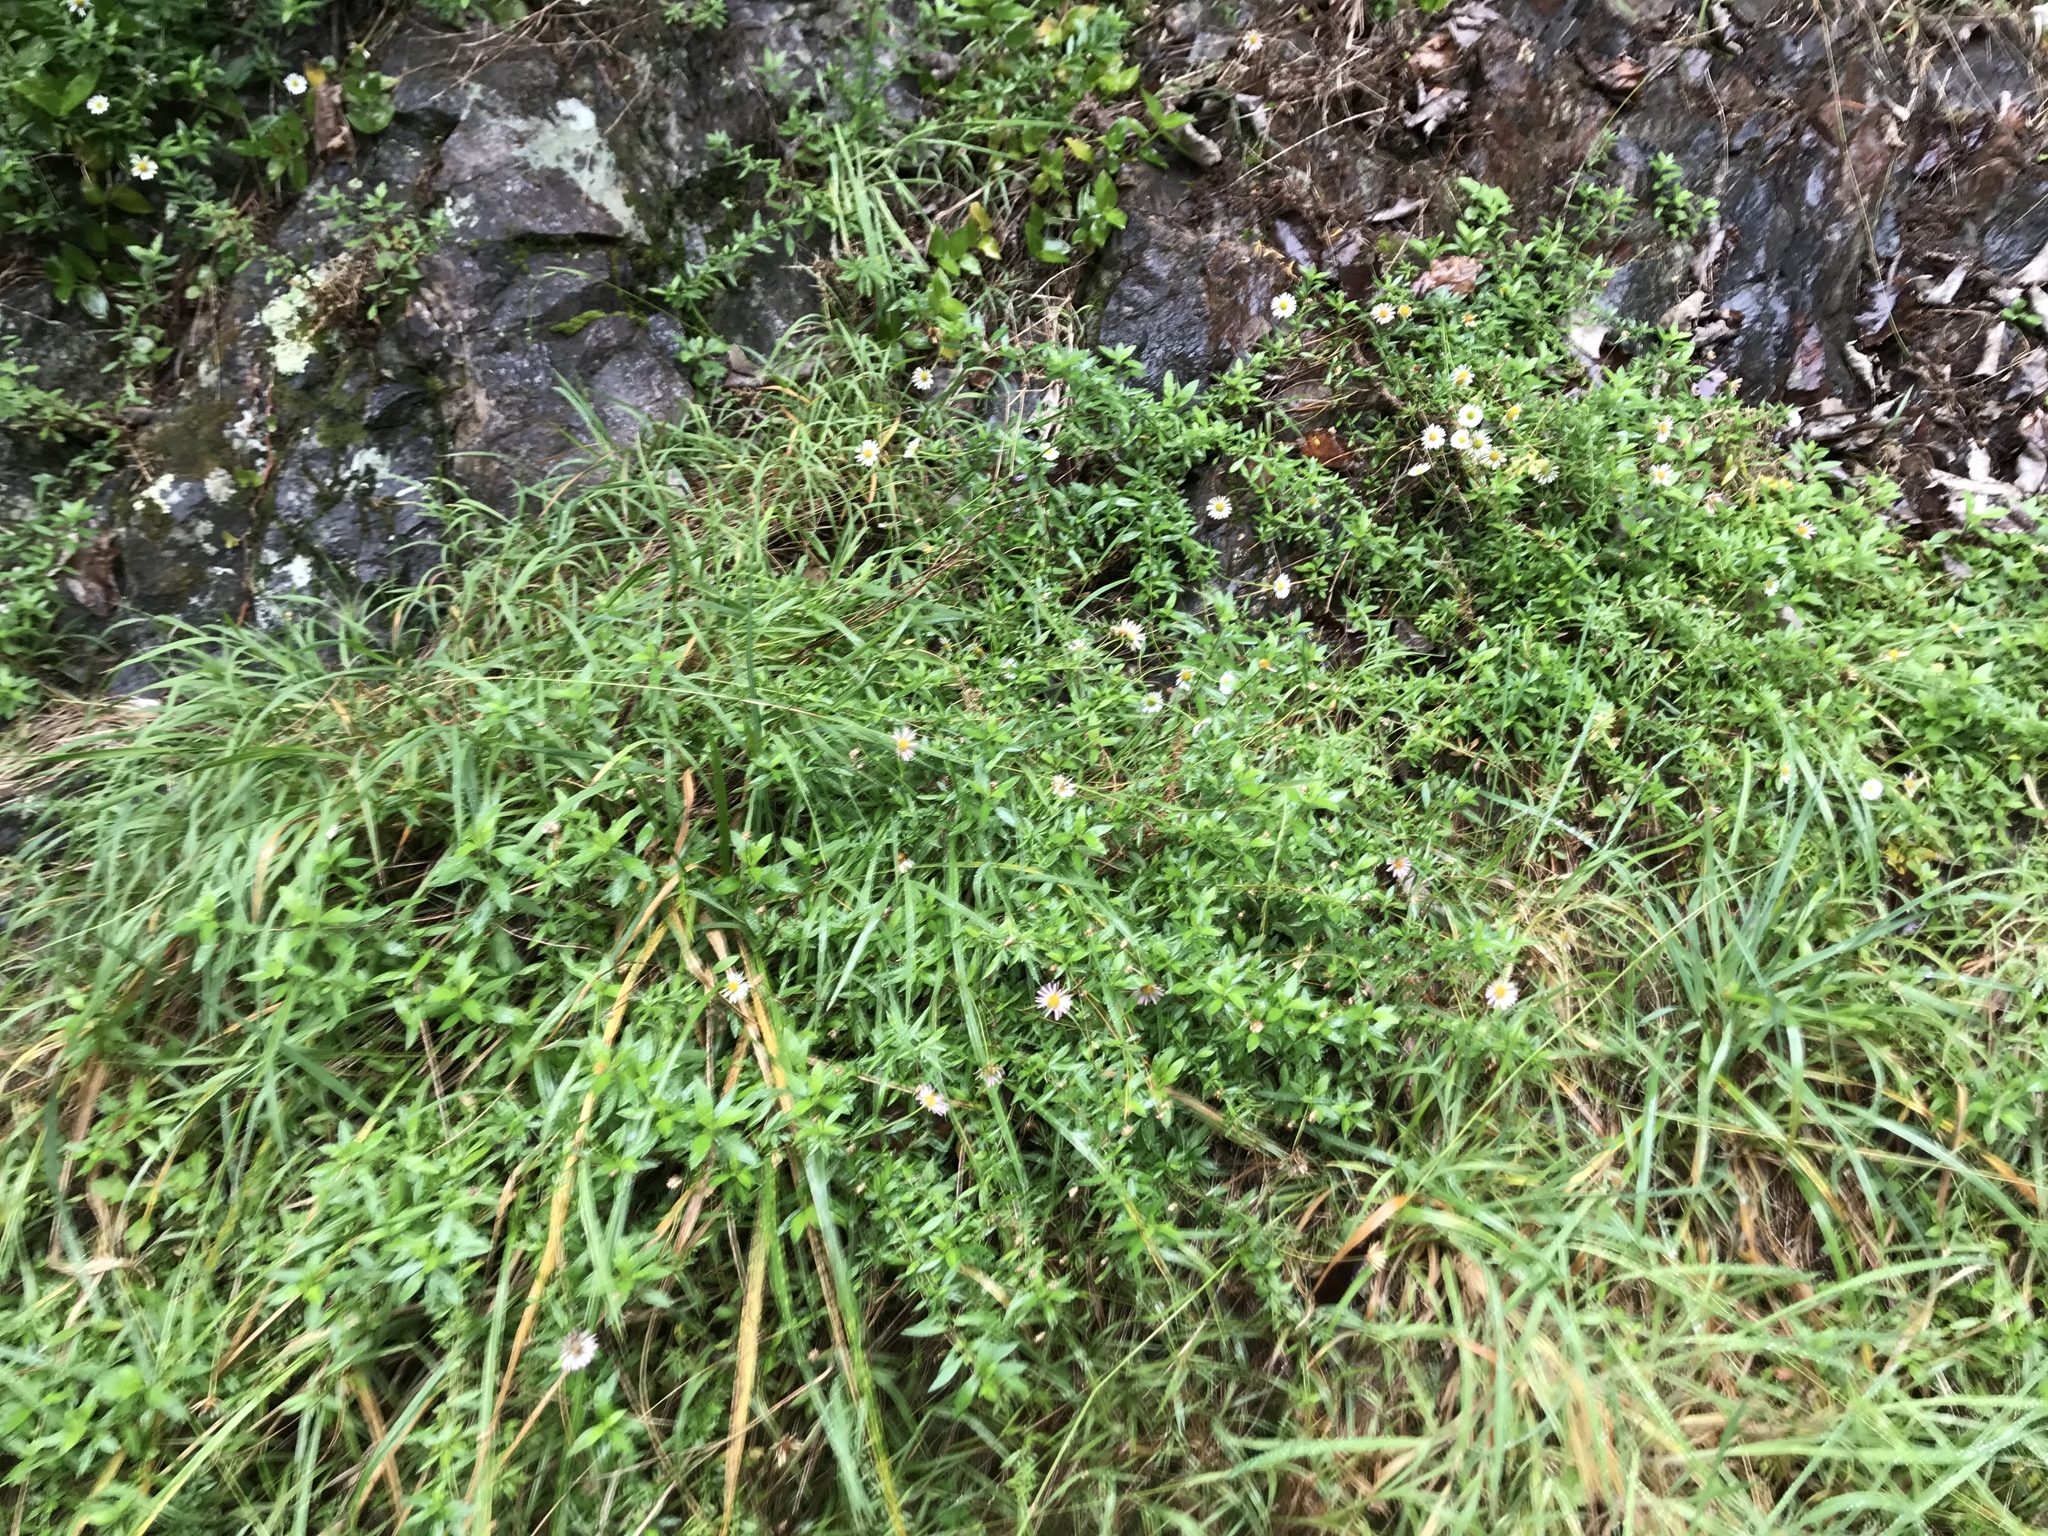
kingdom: Plantae
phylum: Tracheophyta
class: Magnoliopsida
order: Asterales
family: Asteraceae
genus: Erigeron
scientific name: Erigeron karvinskianus
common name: Mexican fleabane
